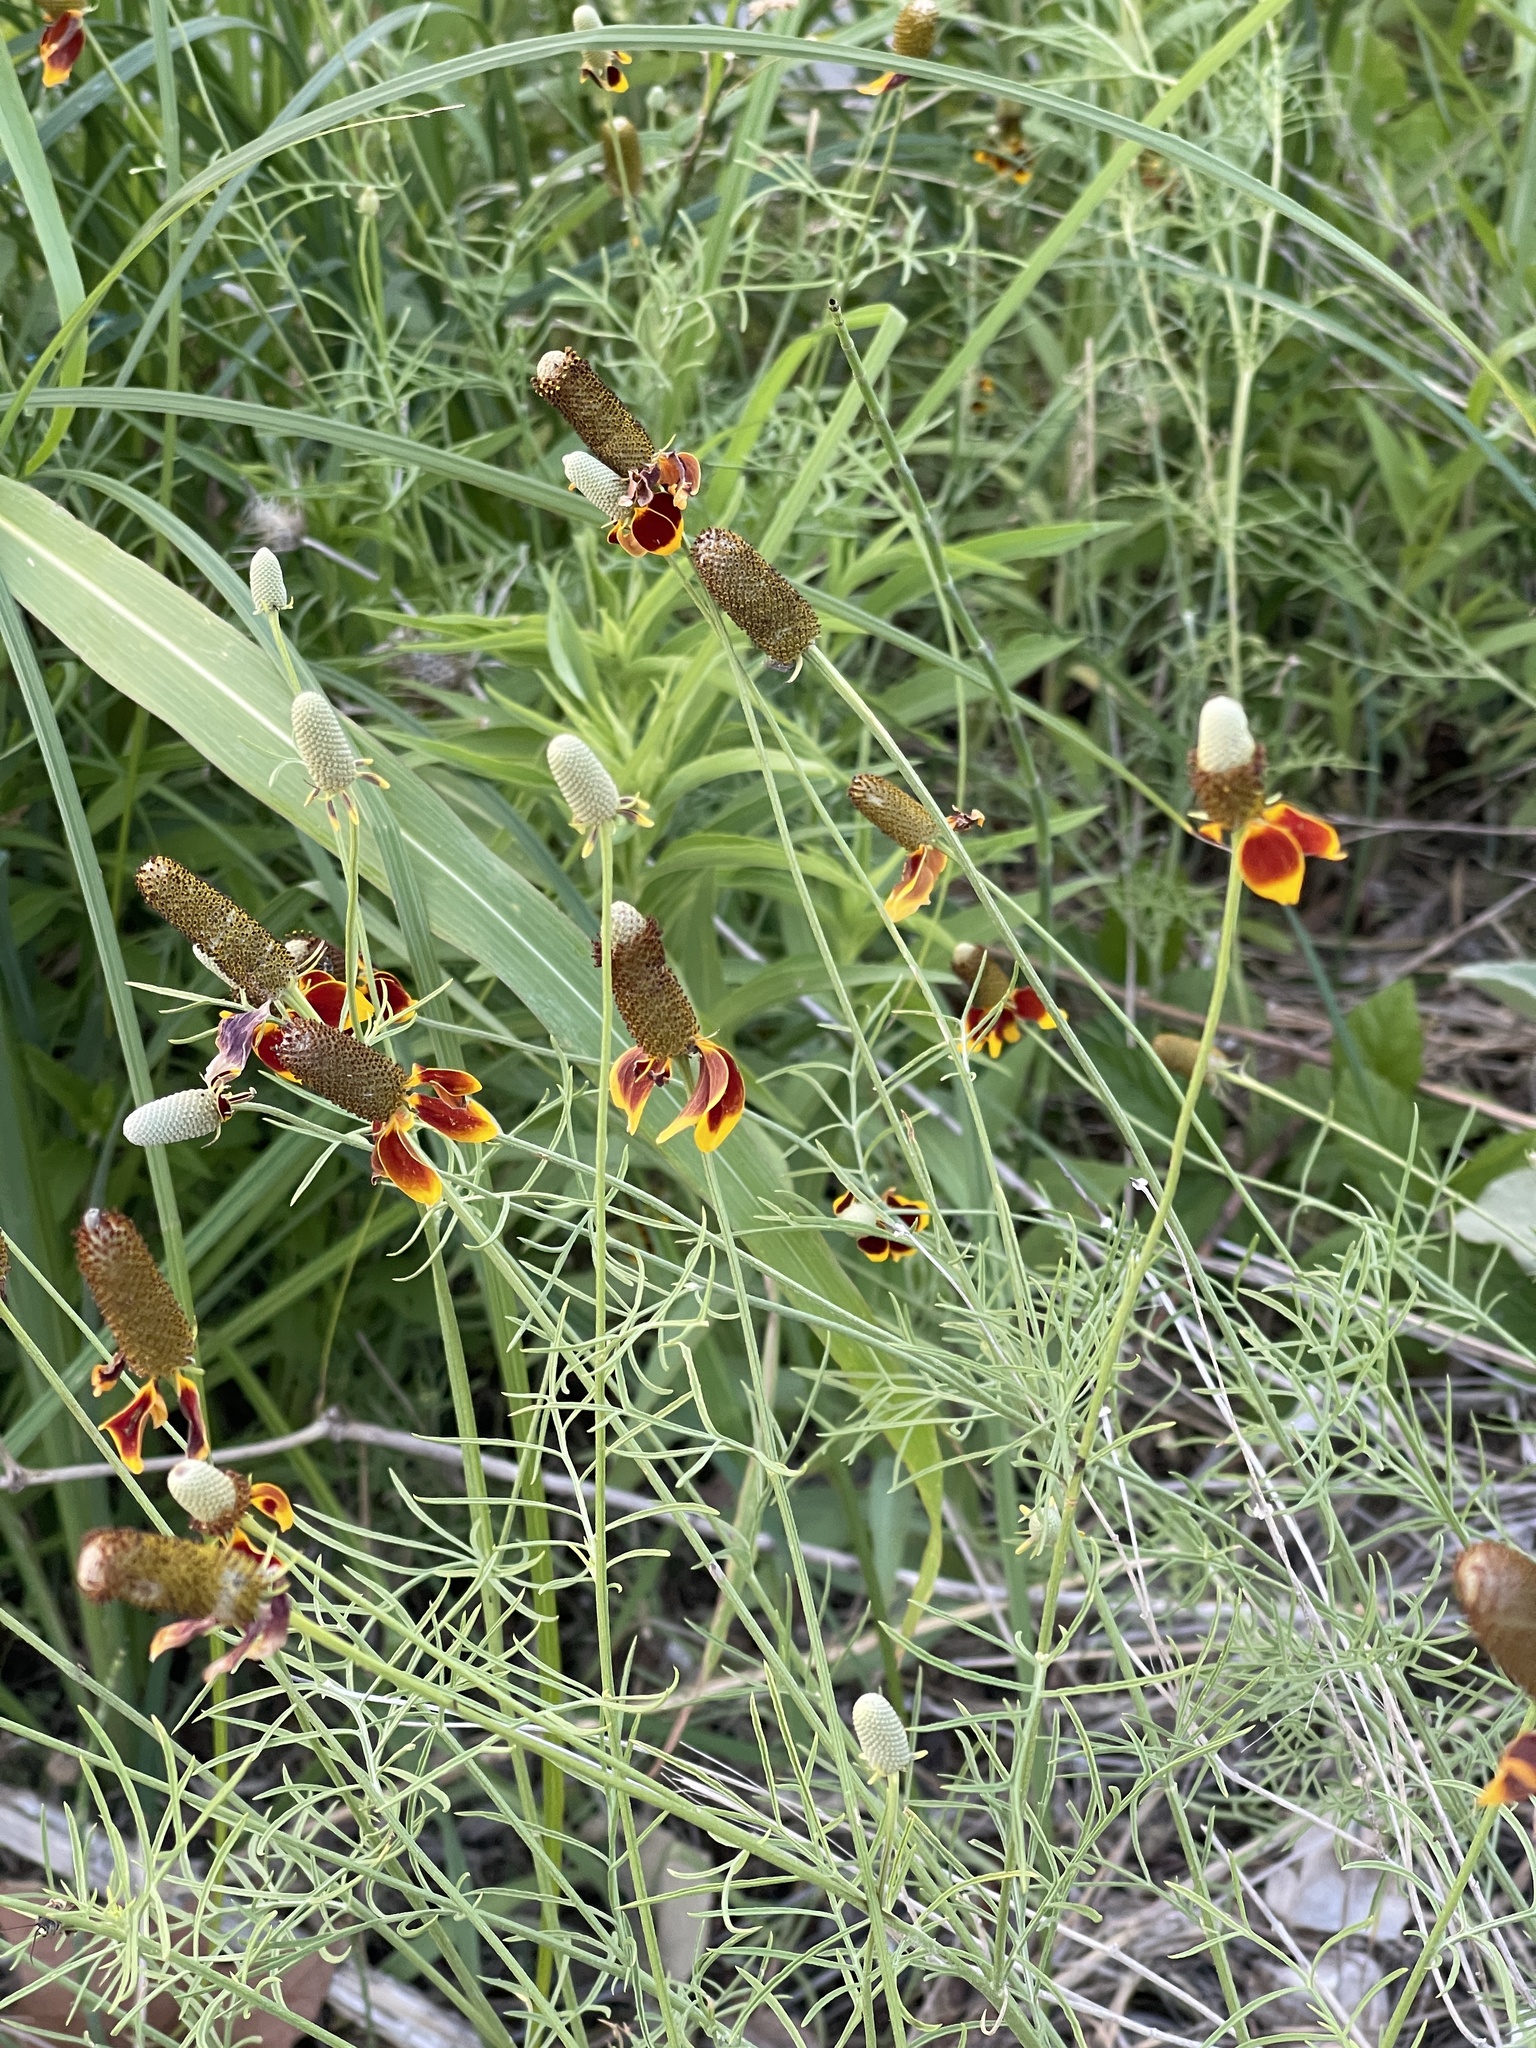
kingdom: Plantae
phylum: Tracheophyta
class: Magnoliopsida
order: Asterales
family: Asteraceae
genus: Ratibida
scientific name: Ratibida columnifera
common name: Prairie coneflower
